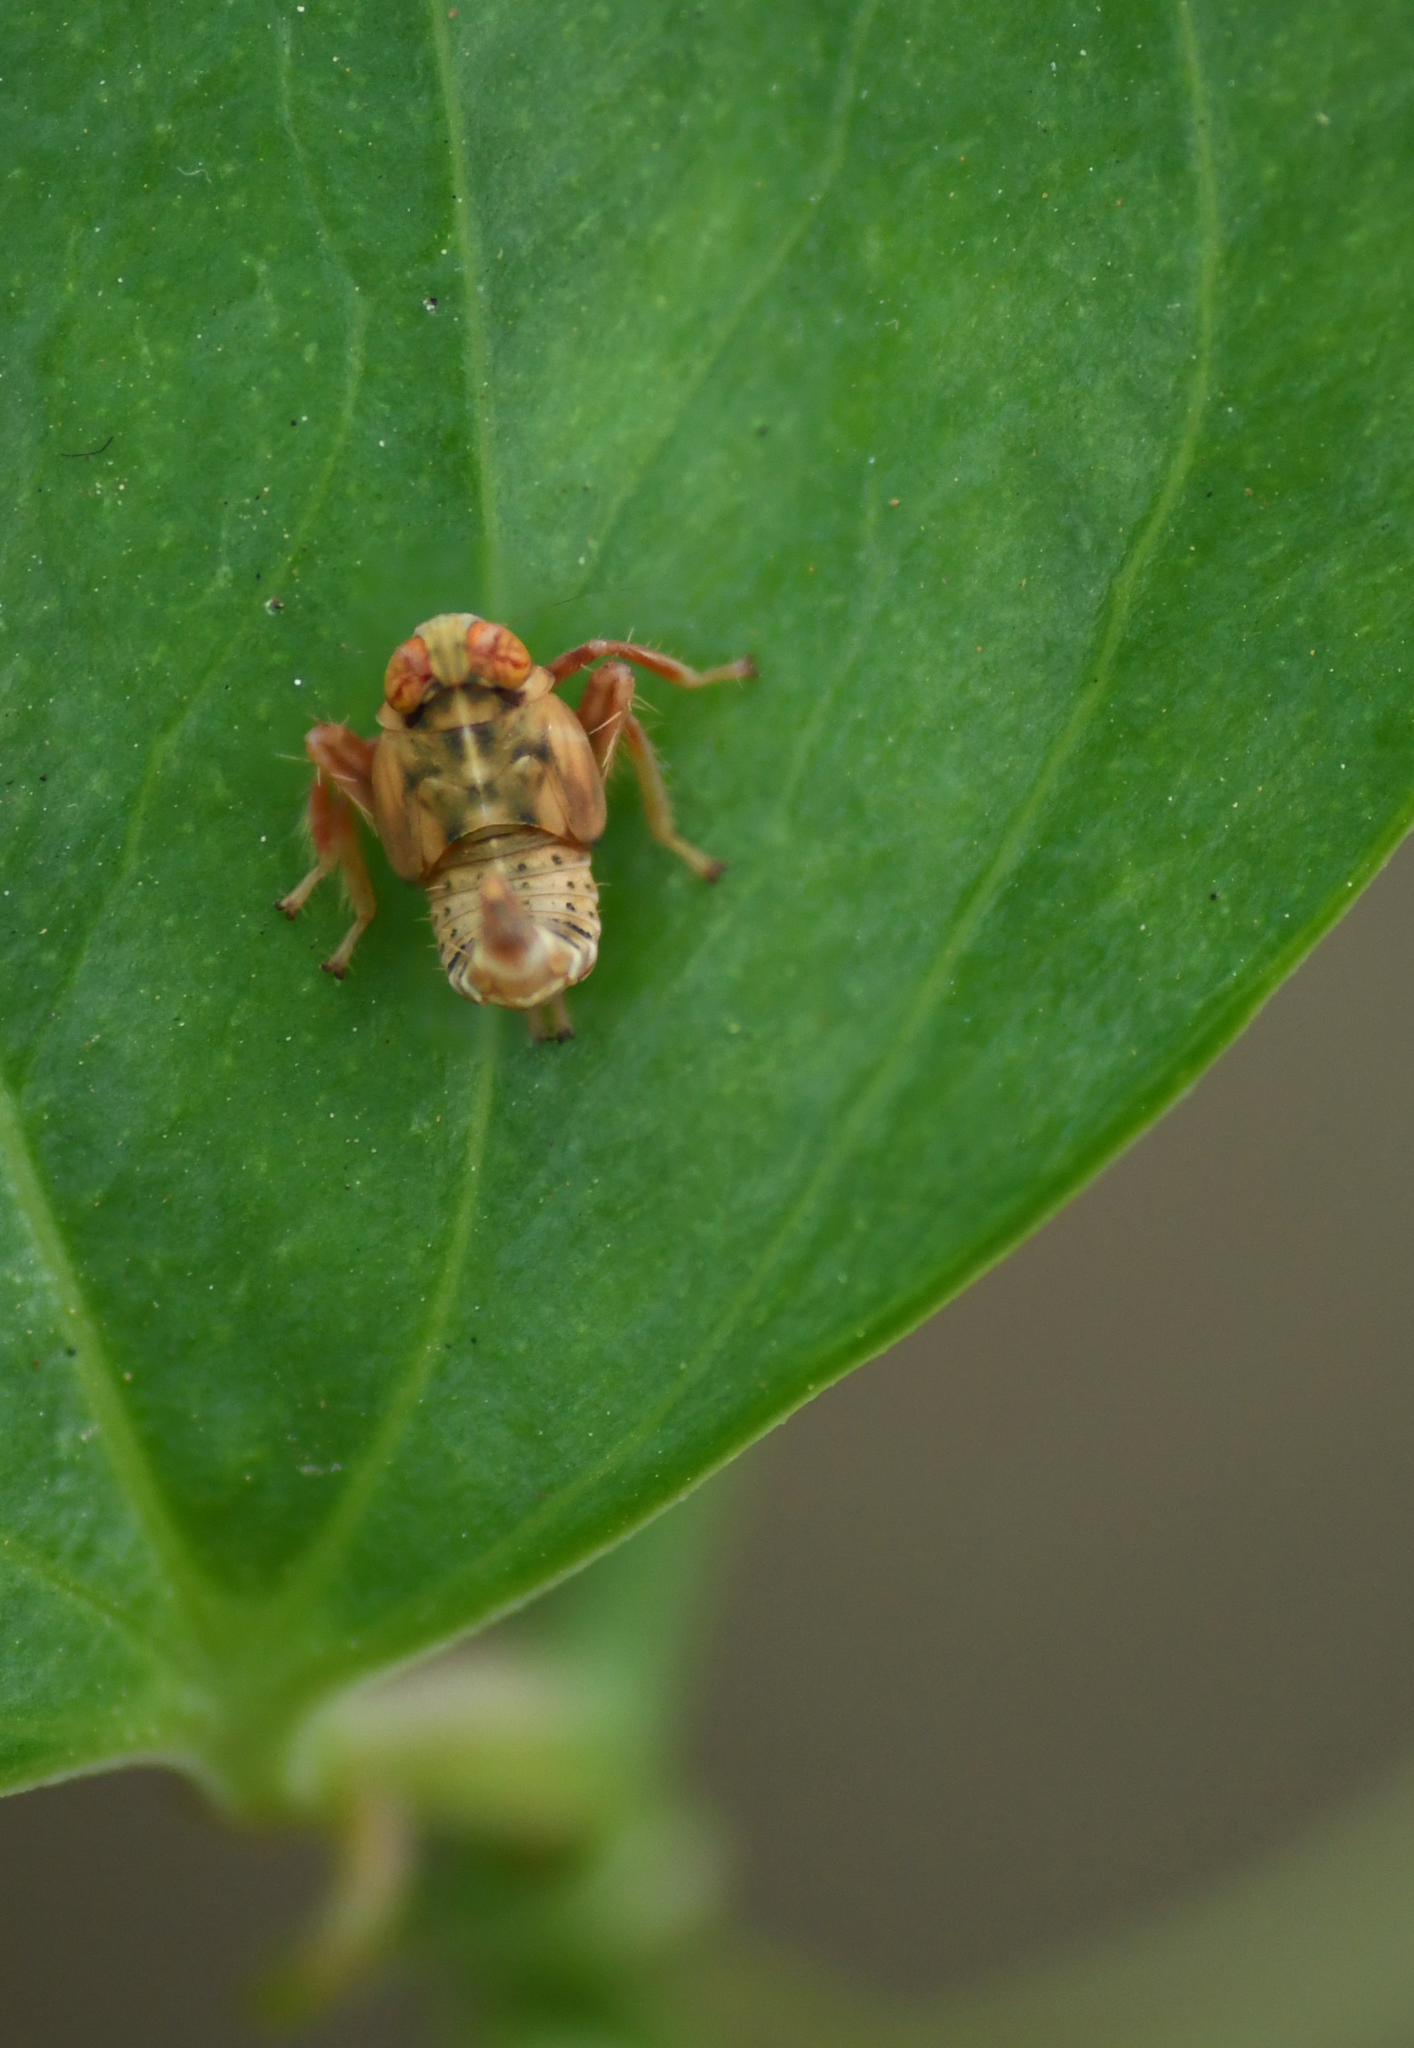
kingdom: Animalia
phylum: Arthropoda
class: Insecta
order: Hemiptera
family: Cicadellidae
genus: Jikradia
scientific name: Jikradia olitoria
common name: Coppery leafhopper
